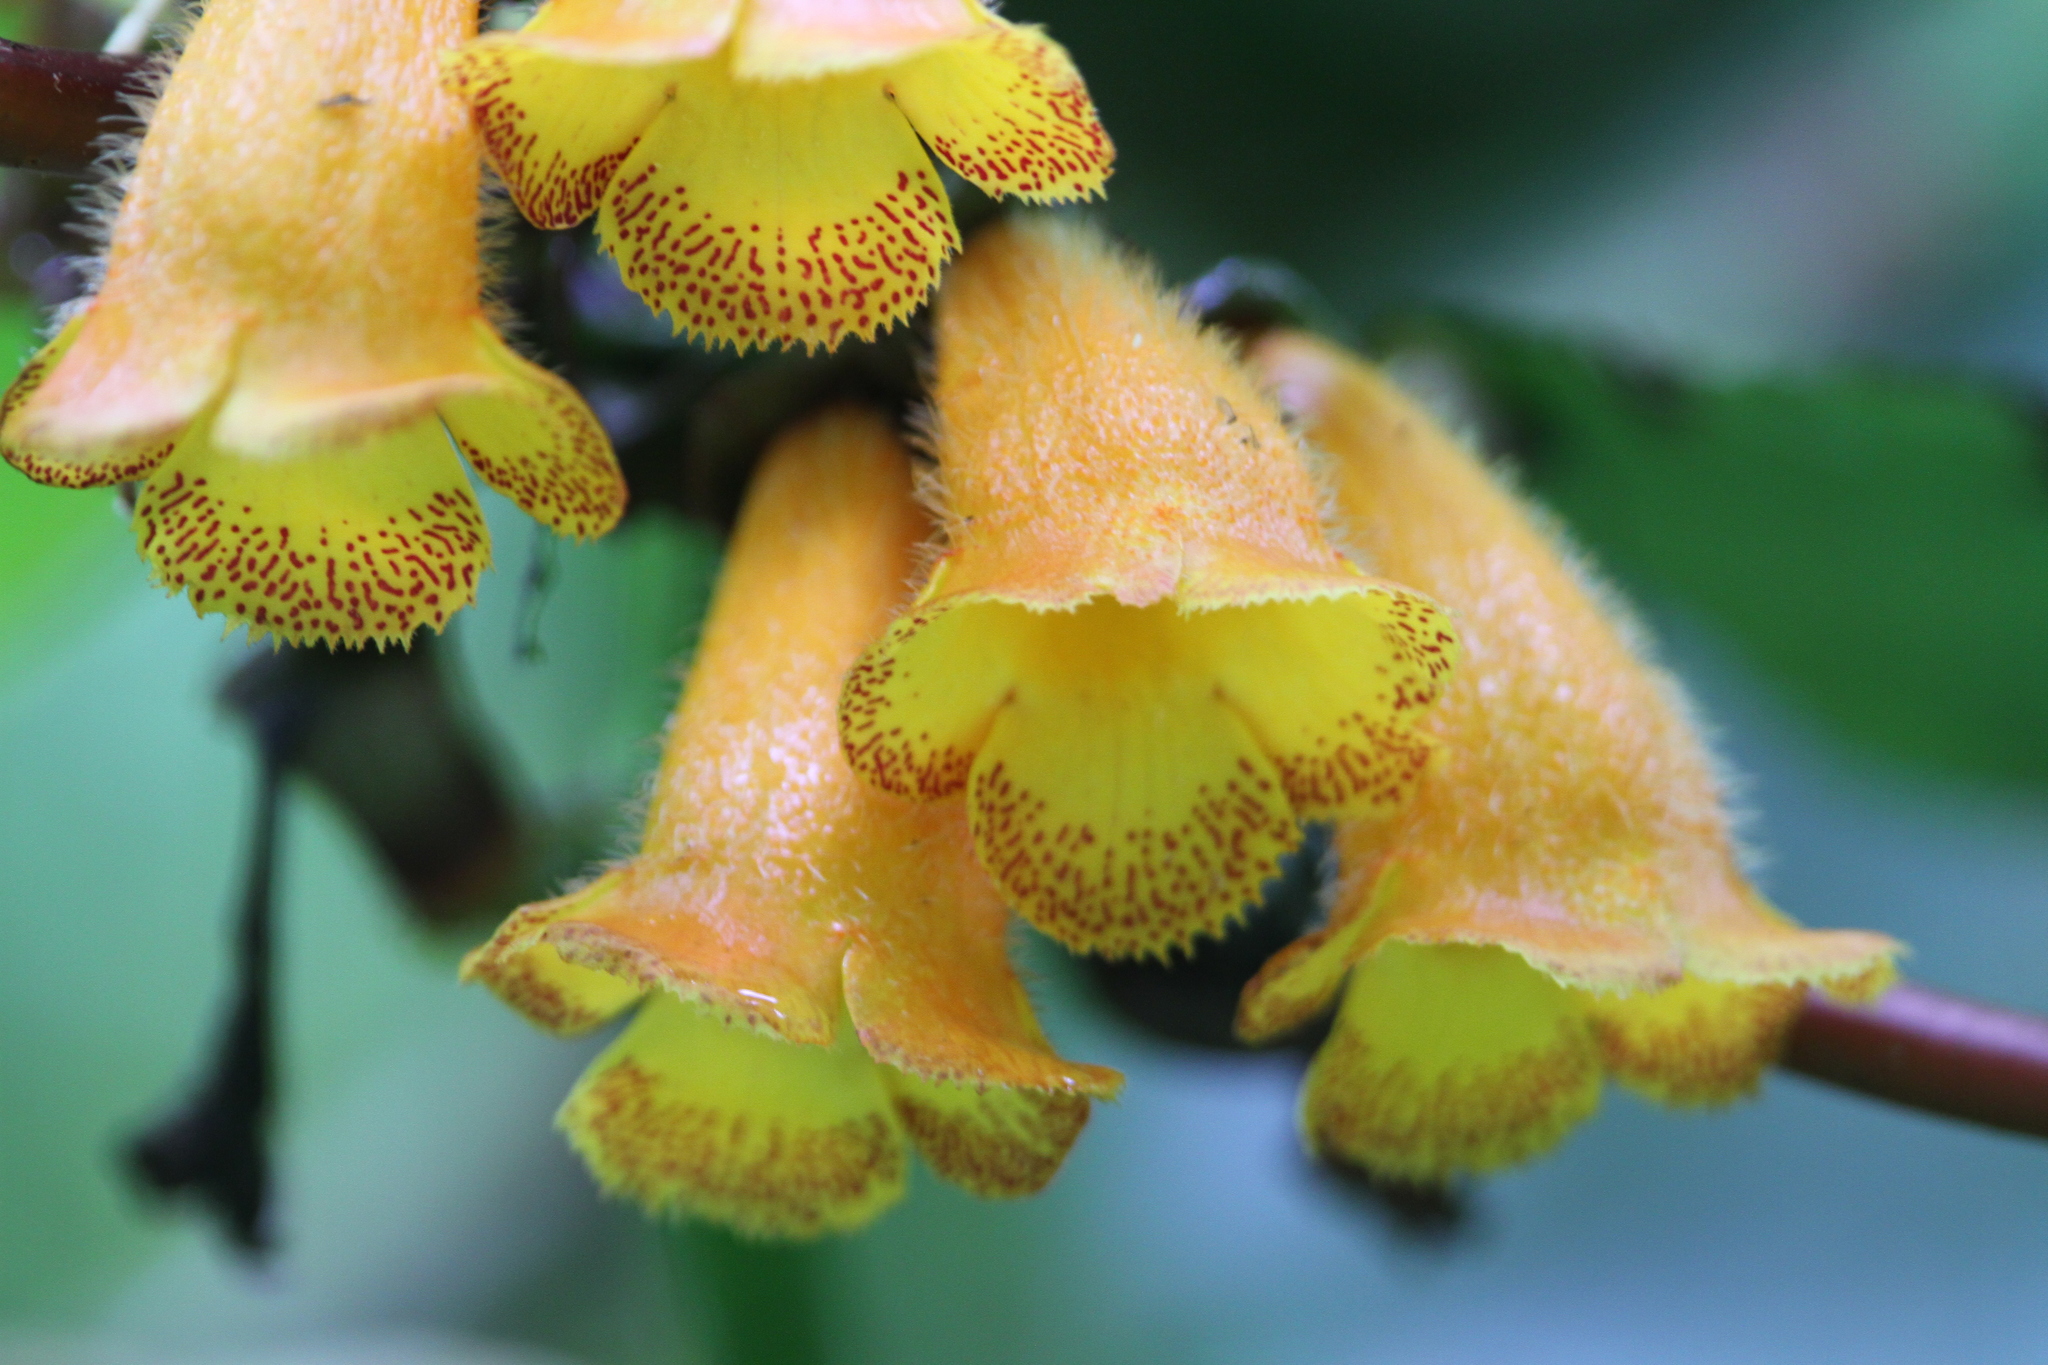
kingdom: Plantae
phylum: Tracheophyta
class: Magnoliopsida
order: Lamiales
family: Gesneriaceae
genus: Solenophora
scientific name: Solenophora purpusii
